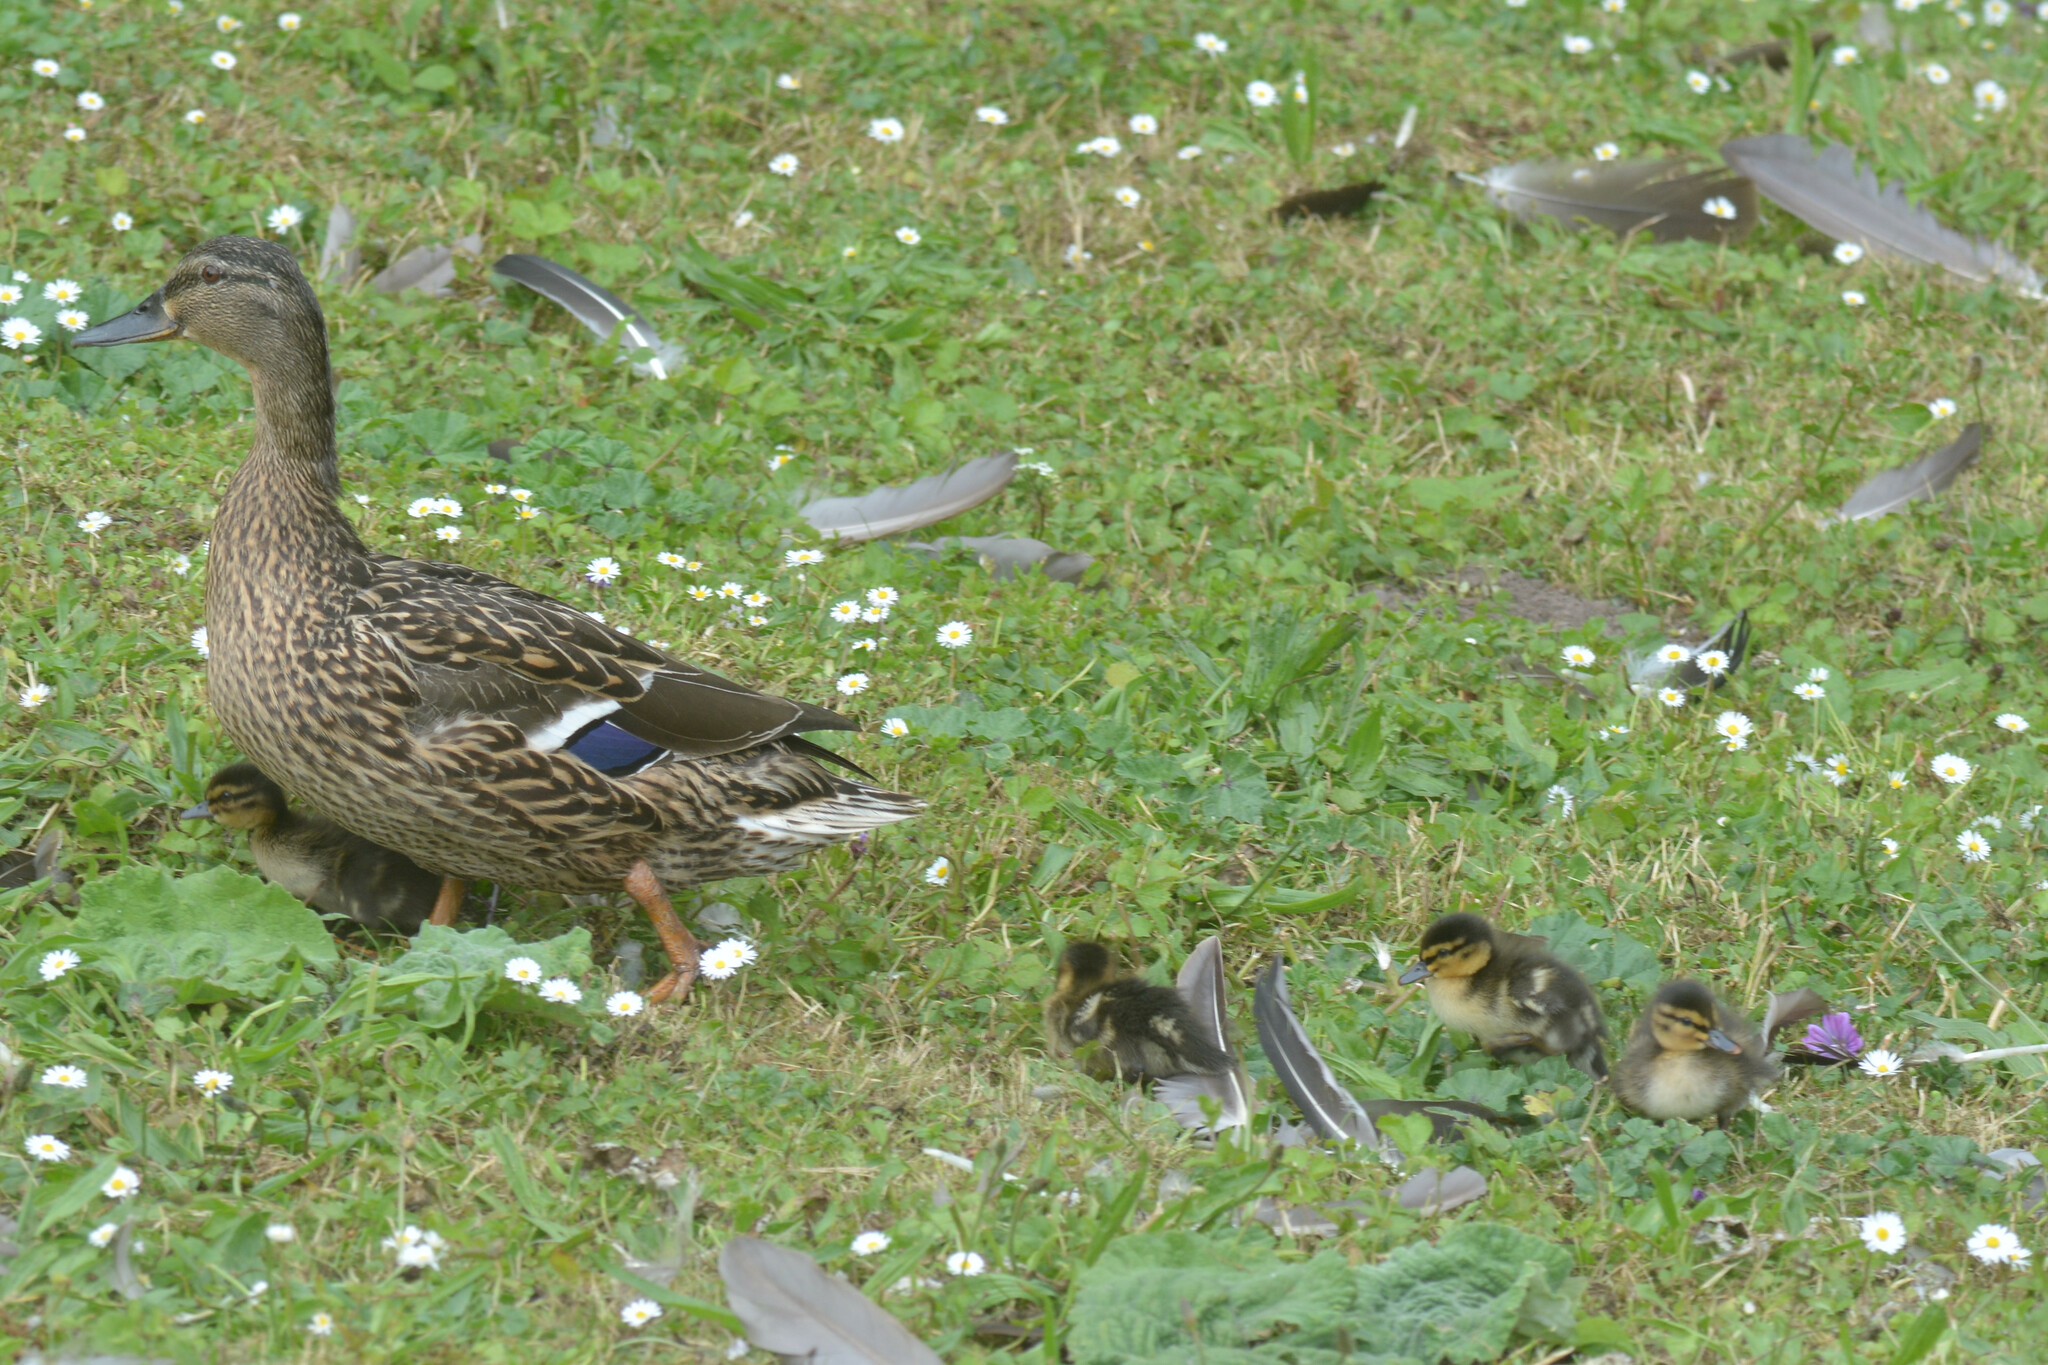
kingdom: Animalia
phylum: Chordata
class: Aves
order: Anseriformes
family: Anatidae
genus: Anas
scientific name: Anas platyrhynchos
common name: Mallard
